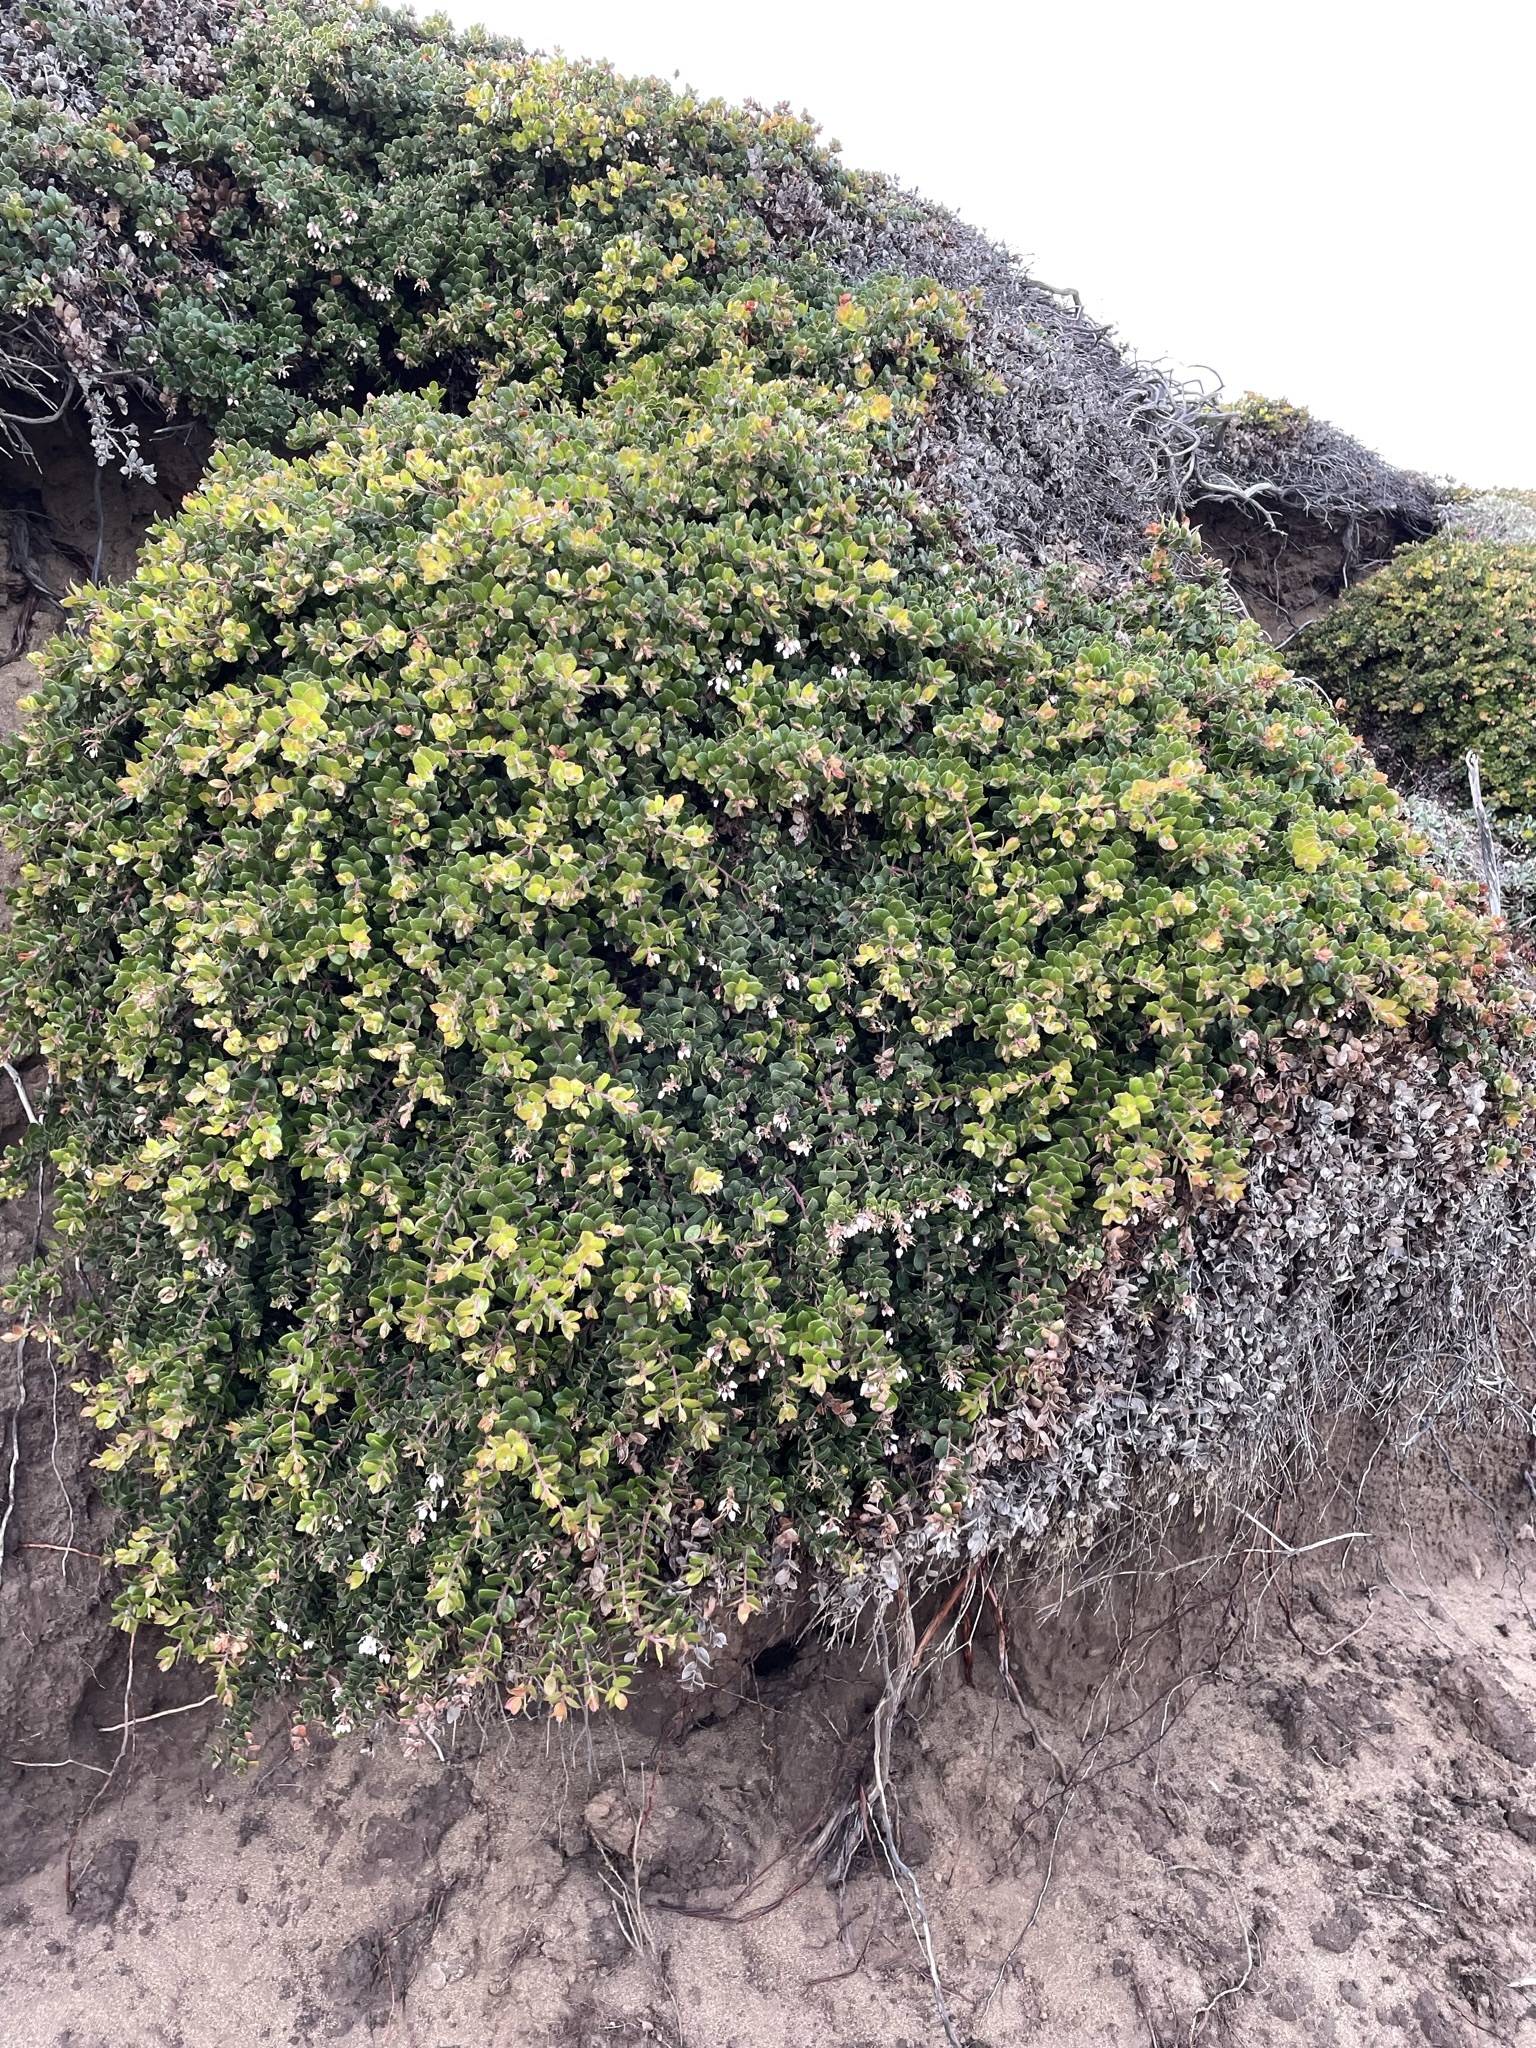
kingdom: Plantae
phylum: Tracheophyta
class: Magnoliopsida
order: Ericales
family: Ericaceae
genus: Arctostaphylos
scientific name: Arctostaphylos edmundsii
